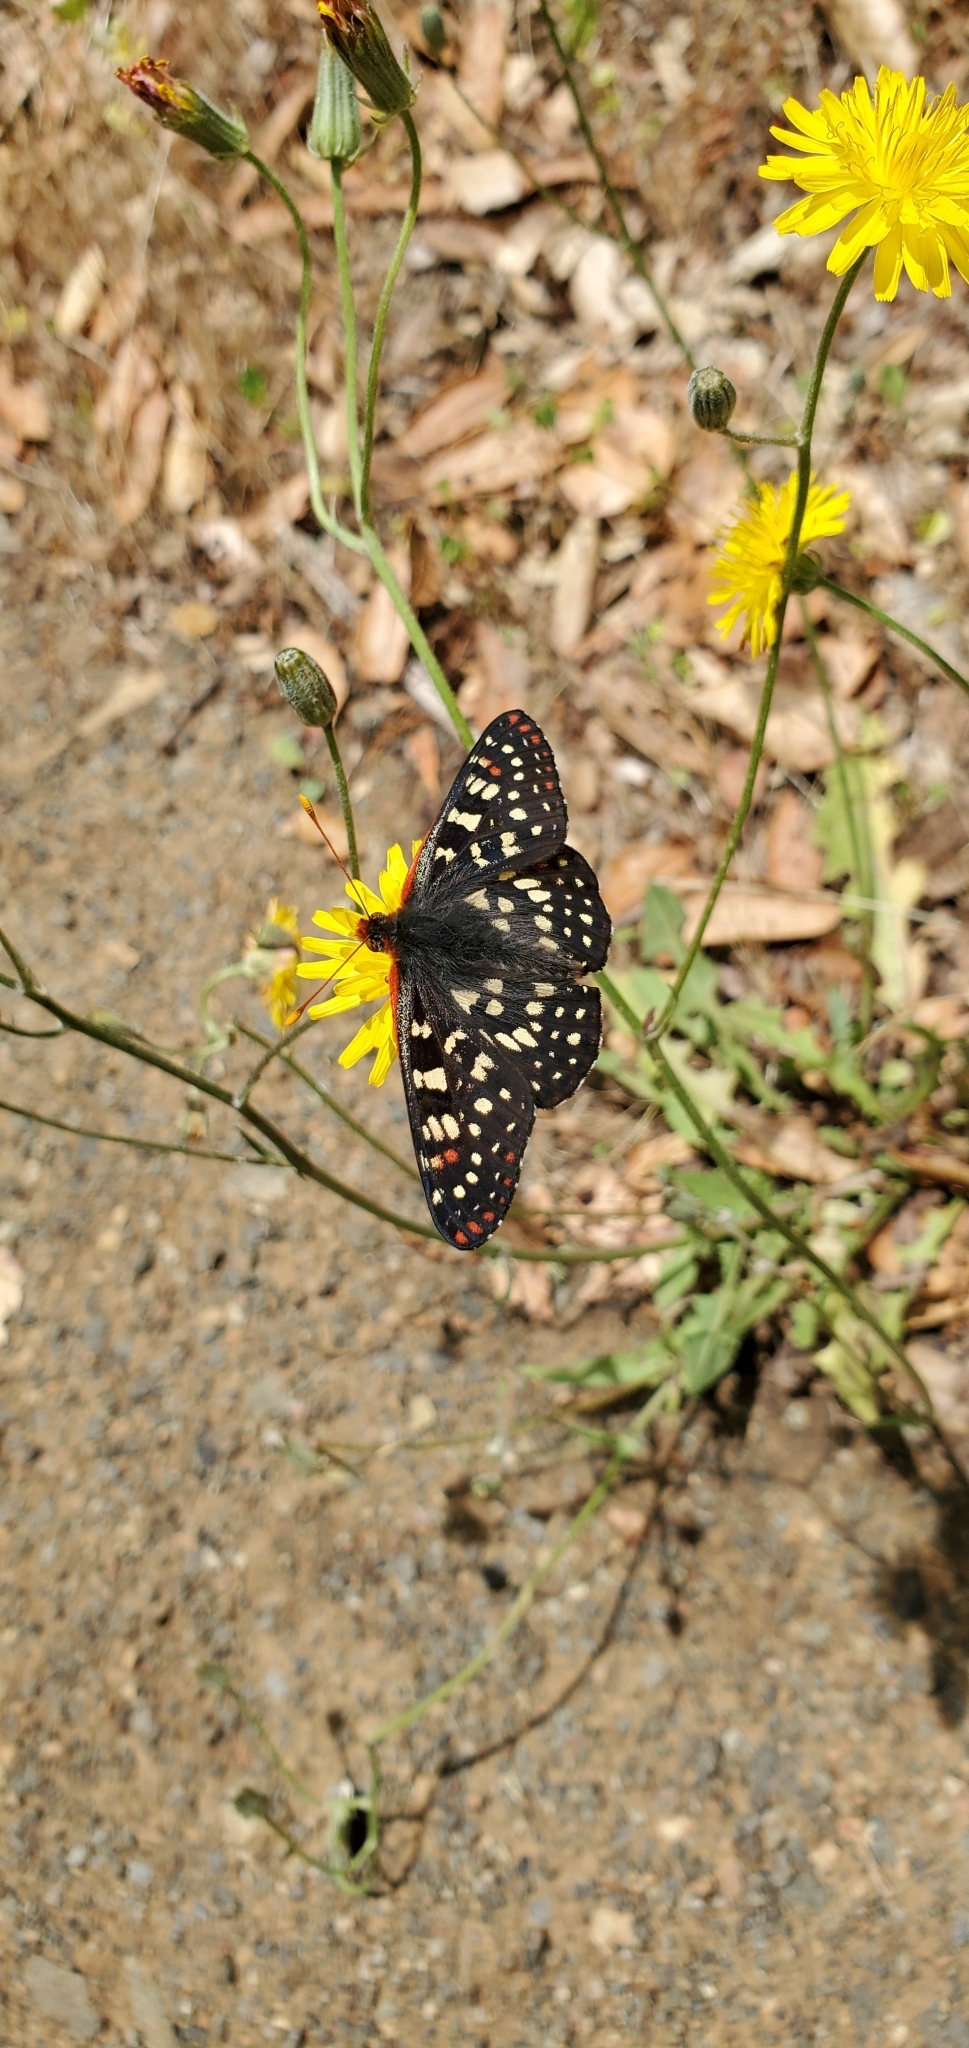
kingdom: Animalia
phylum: Arthropoda
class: Insecta
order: Lepidoptera
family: Nymphalidae
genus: Occidryas
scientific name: Occidryas chalcedona
